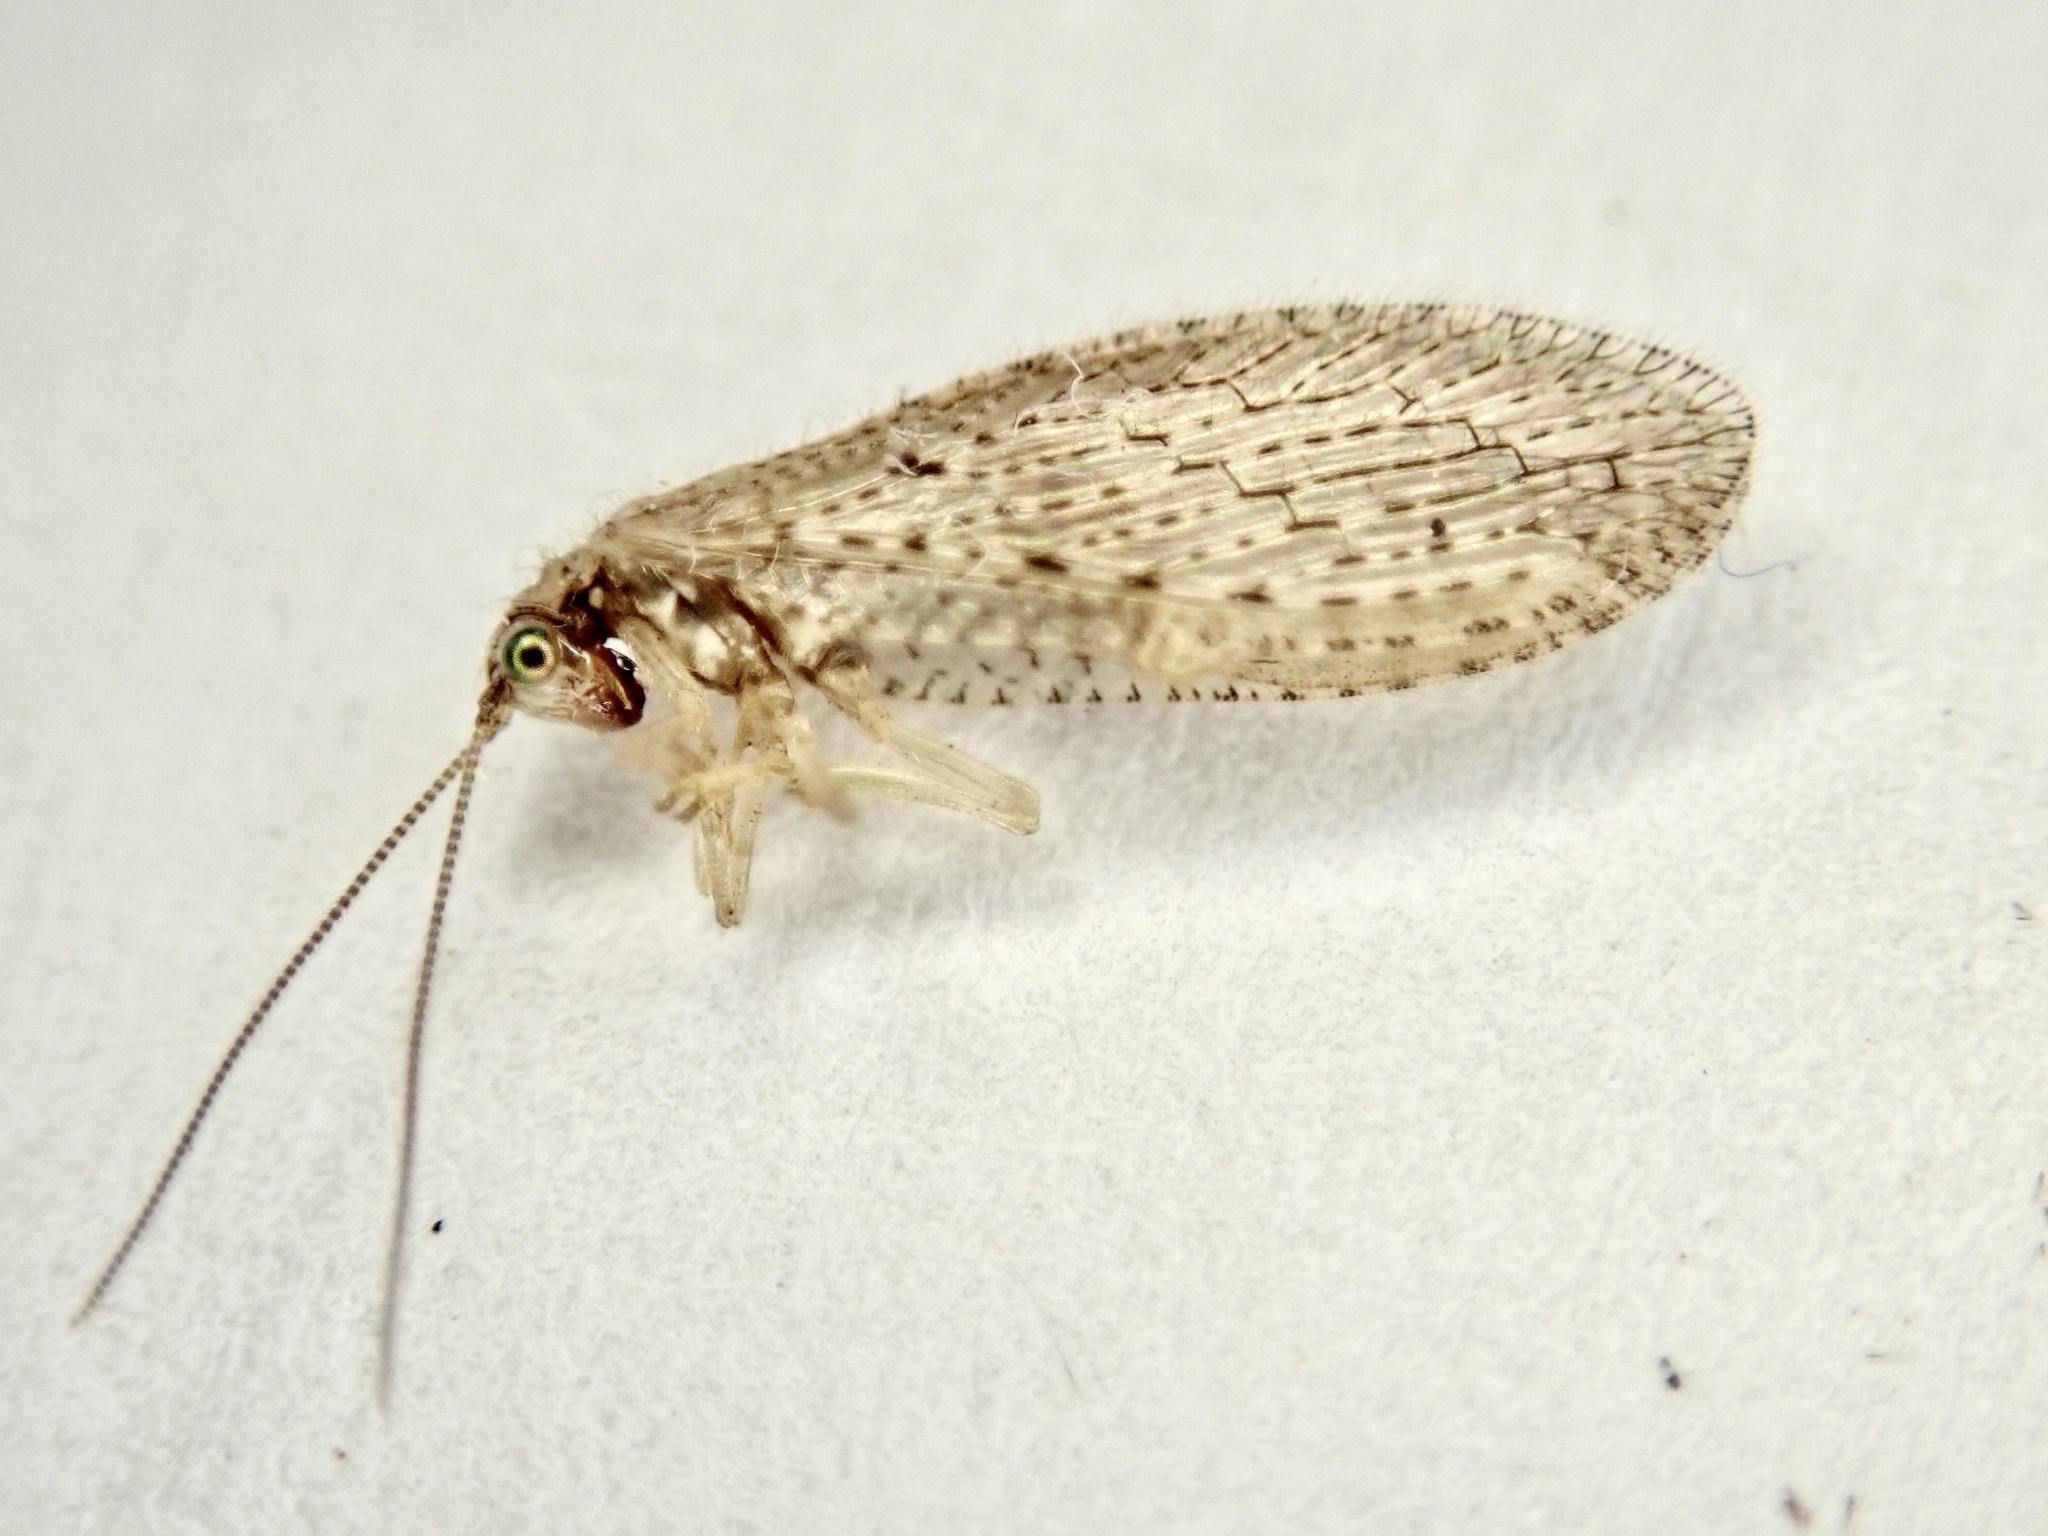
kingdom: Animalia
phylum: Arthropoda
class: Insecta
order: Neuroptera
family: Hemerobiidae
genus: Micromus
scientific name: Micromus tasmaniae
